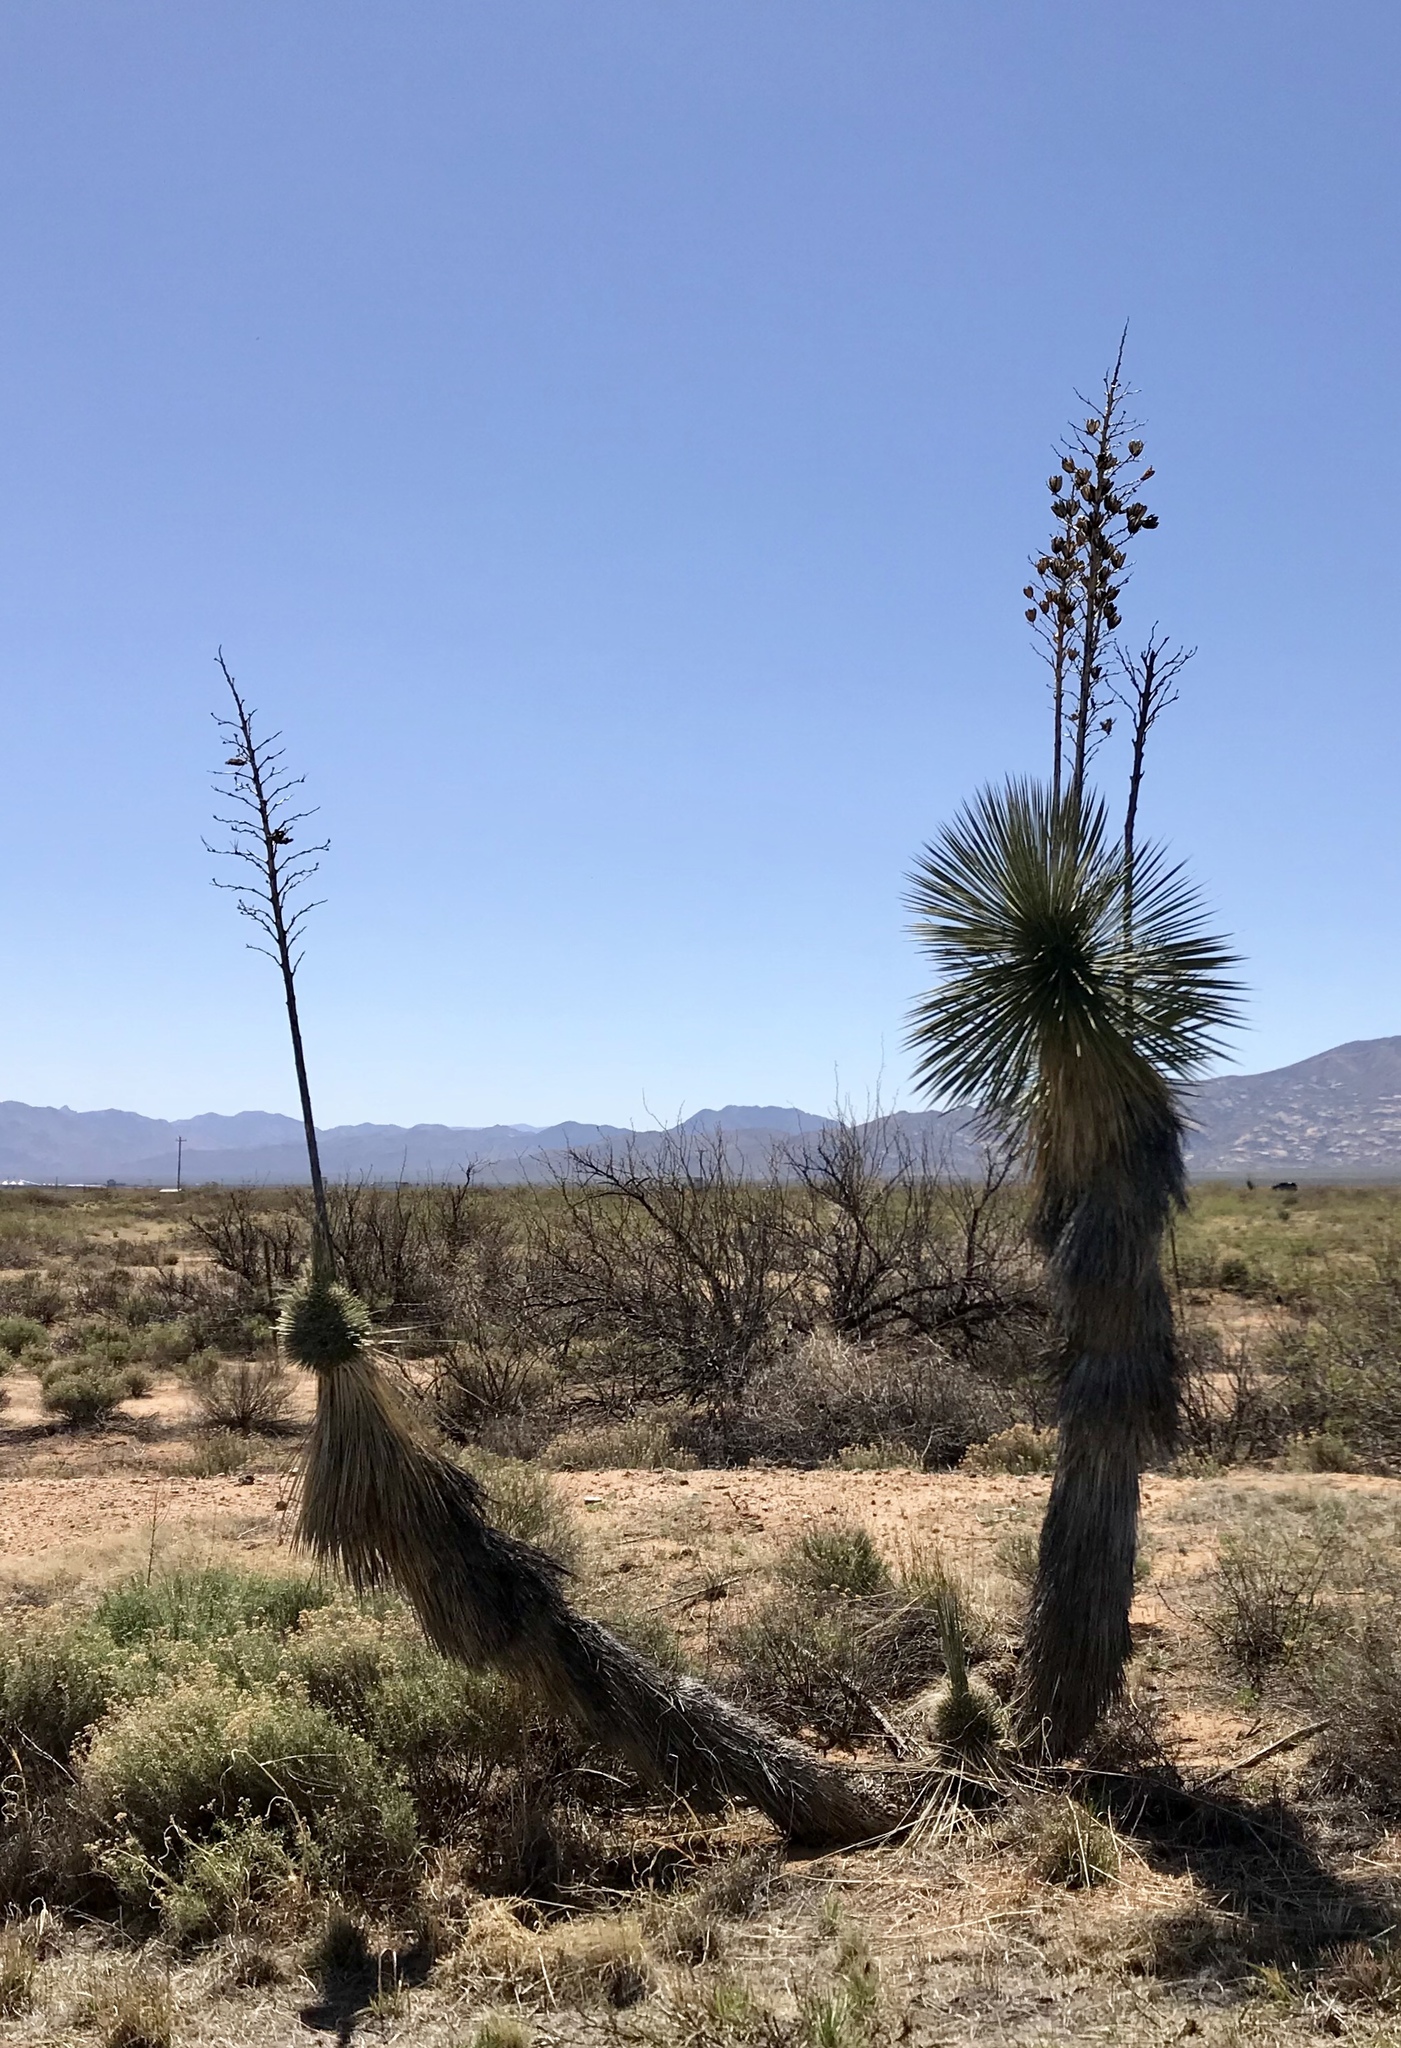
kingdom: Plantae
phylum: Tracheophyta
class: Liliopsida
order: Asparagales
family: Asparagaceae
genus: Yucca
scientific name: Yucca elata
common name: Palmella
